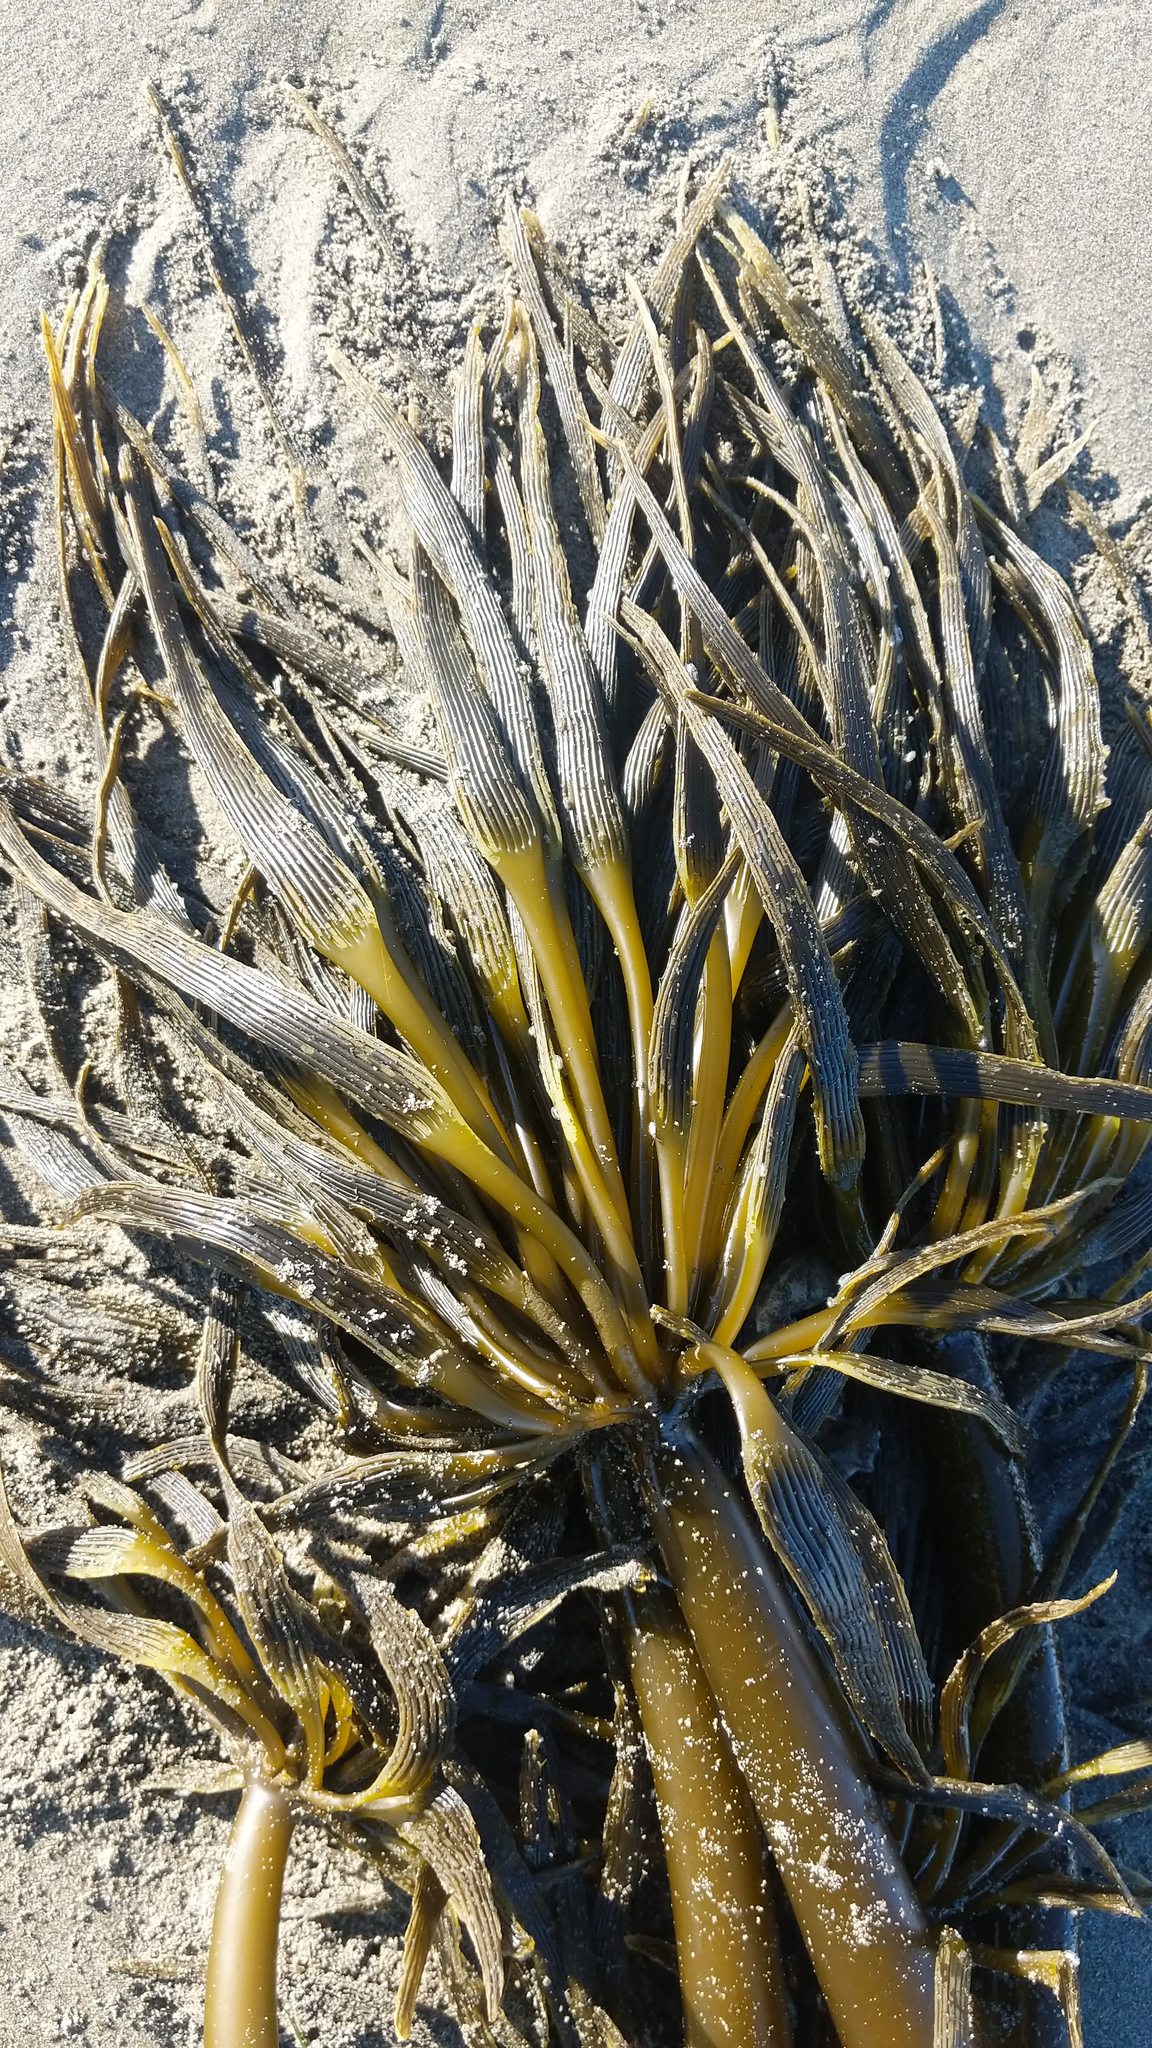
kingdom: Chromista
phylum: Ochrophyta
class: Phaeophyceae
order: Laminariales
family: Laminariaceae
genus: Postelsia
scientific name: Postelsia palmiformis
